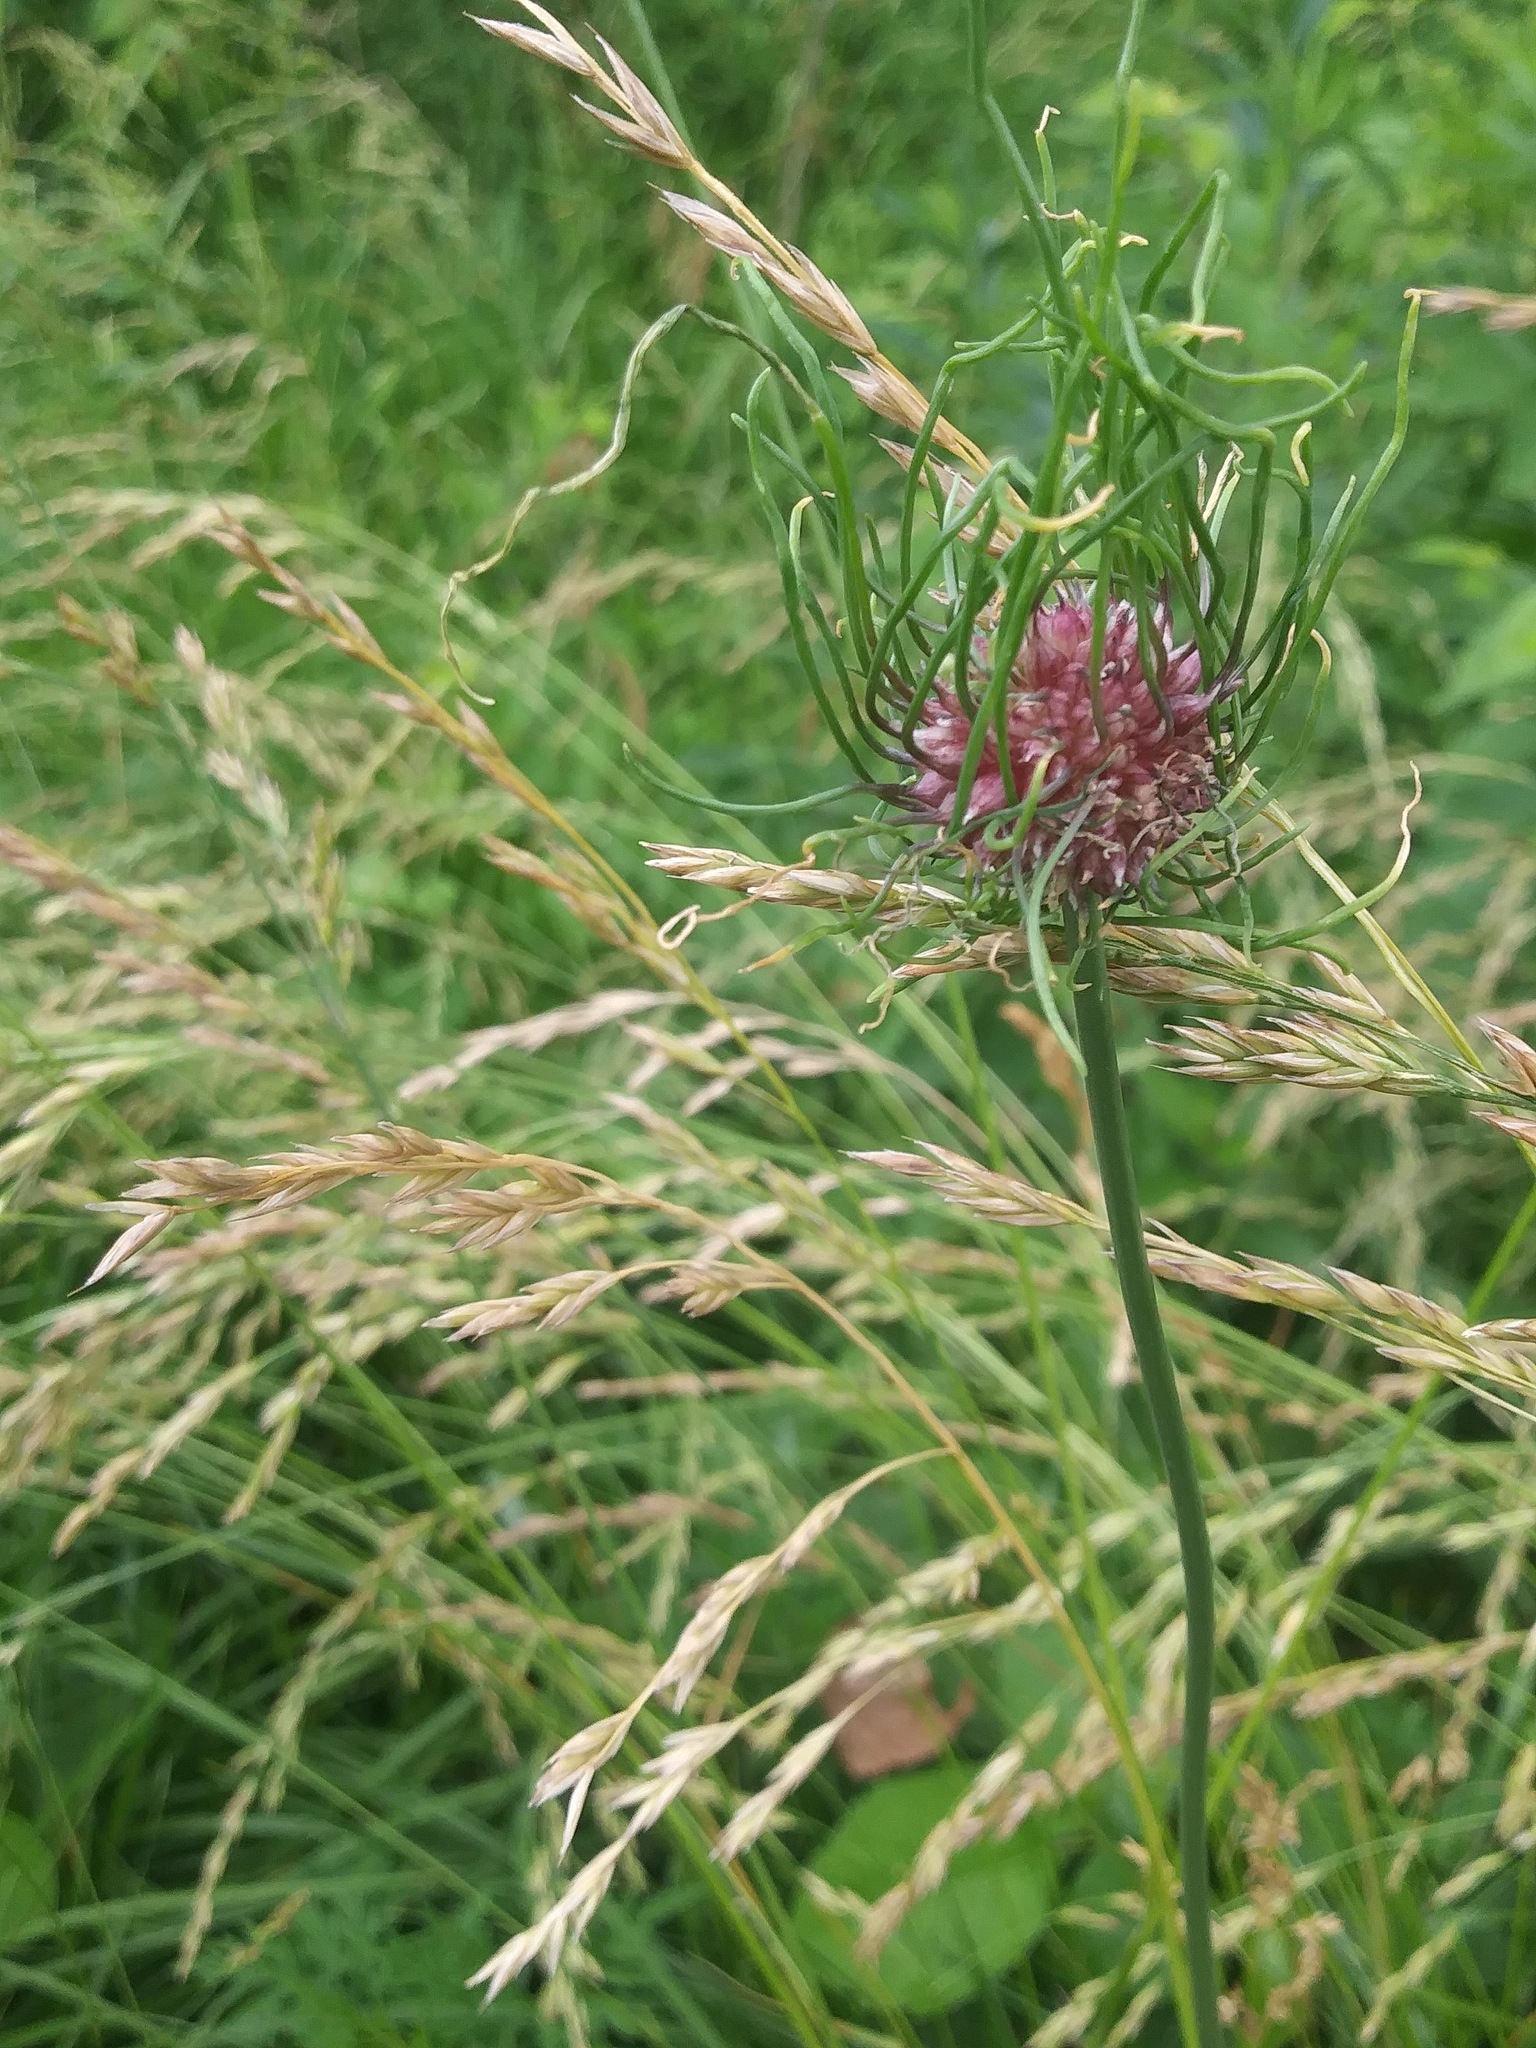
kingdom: Plantae
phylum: Tracheophyta
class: Liliopsida
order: Asparagales
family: Amaryllidaceae
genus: Allium
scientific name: Allium vineale
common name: Crow garlic
